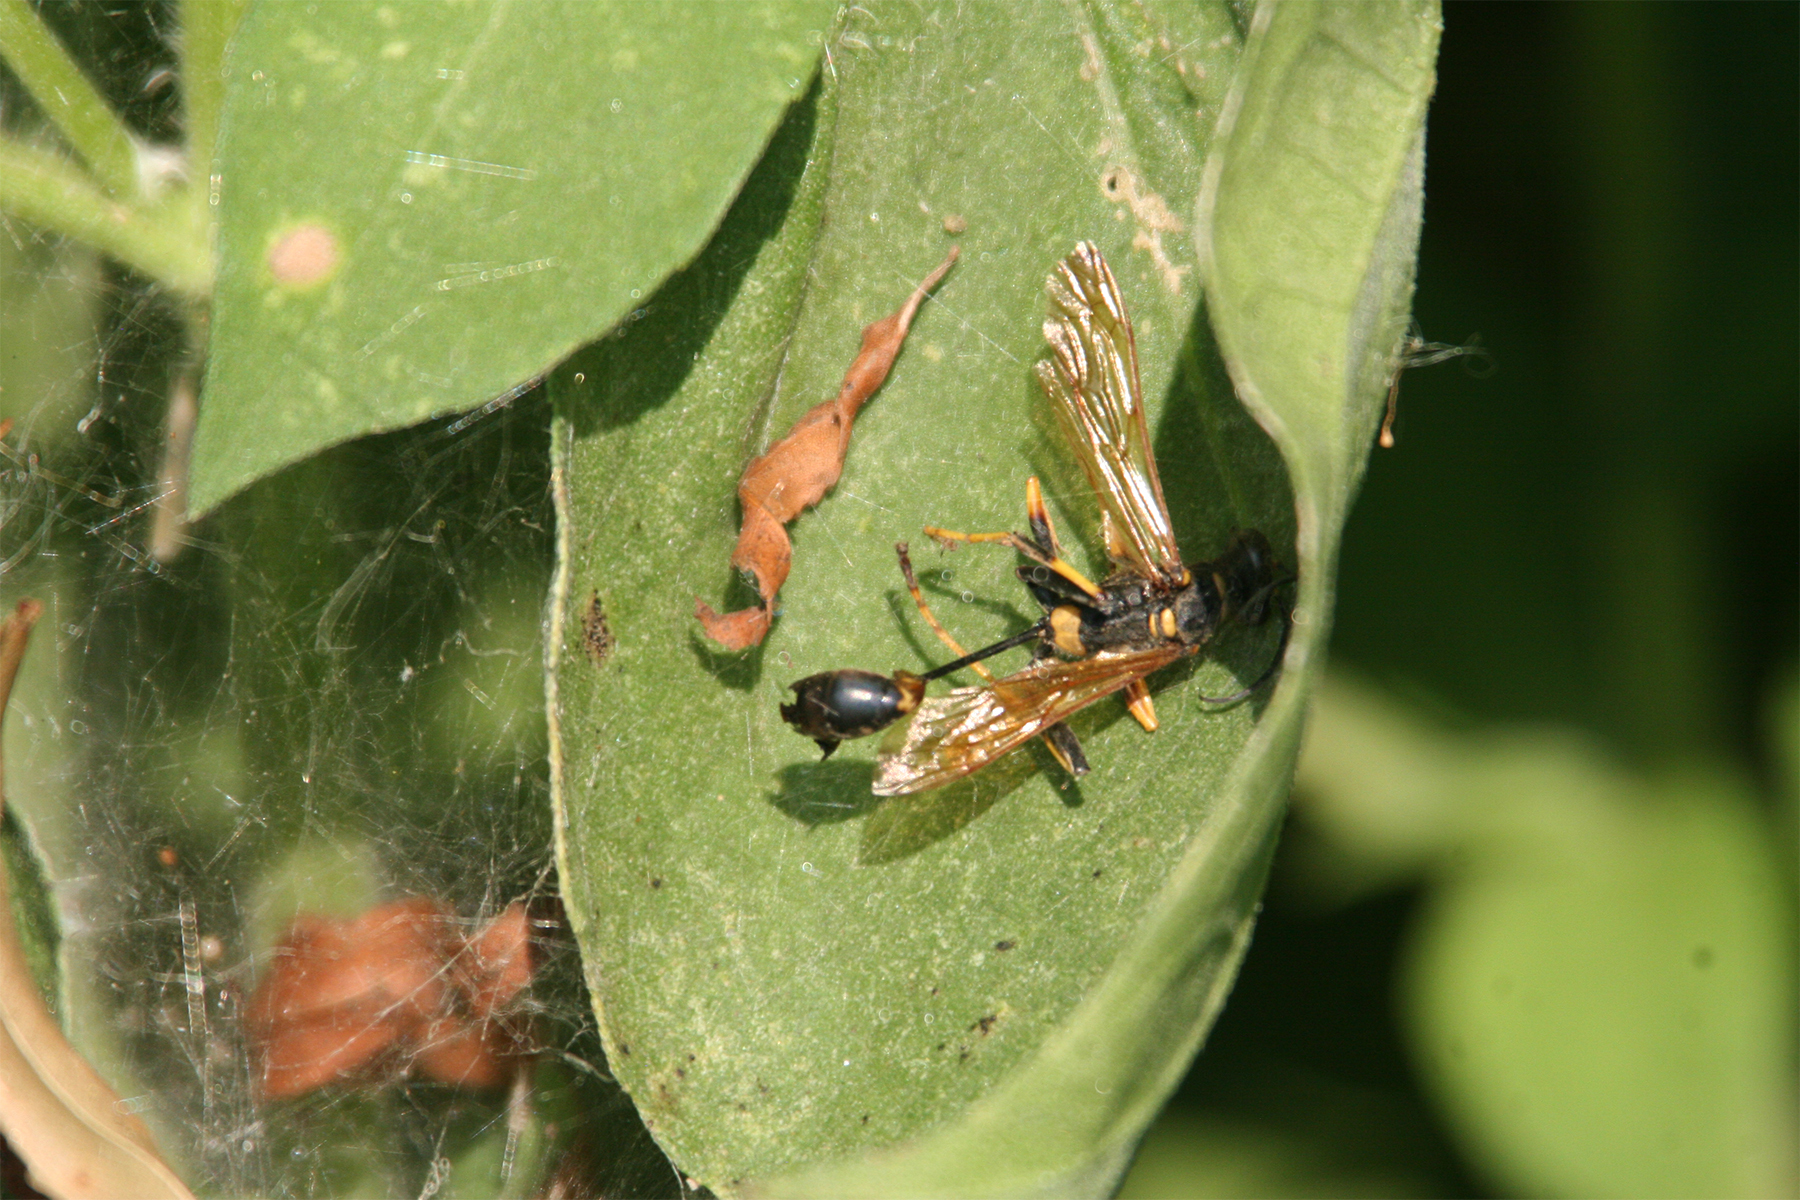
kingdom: Animalia
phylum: Arthropoda
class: Insecta
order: Hymenoptera
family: Sphecidae
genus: Sceliphron
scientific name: Sceliphron caementarium
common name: Mud dauber
